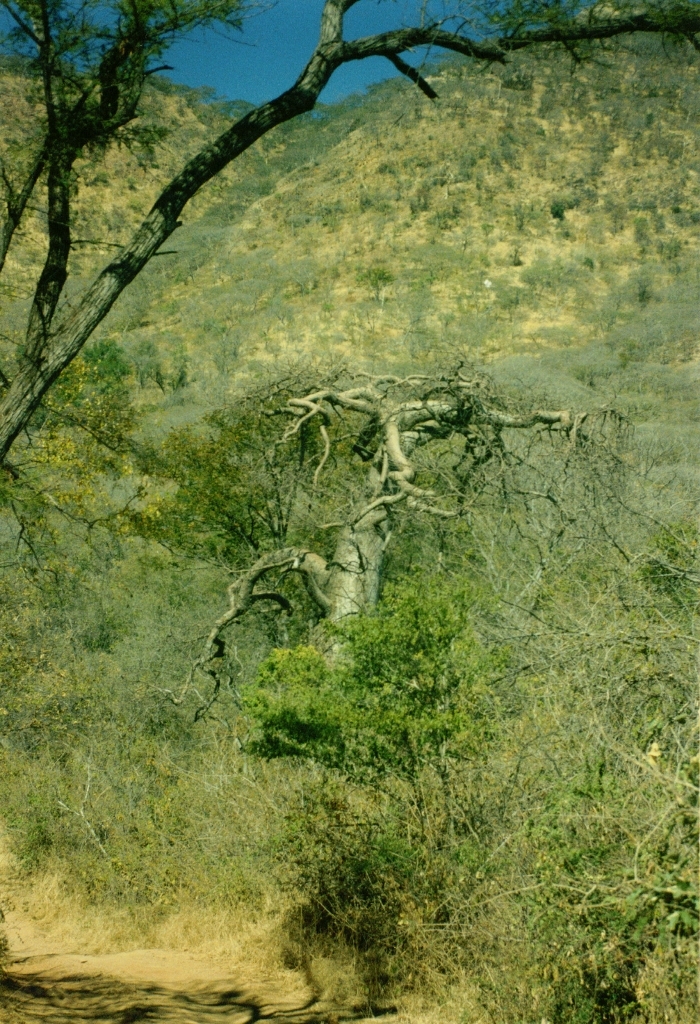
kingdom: Plantae
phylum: Tracheophyta
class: Magnoliopsida
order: Malvales
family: Malvaceae
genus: Adansonia
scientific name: Adansonia digitata
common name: Dead-rat-tree
